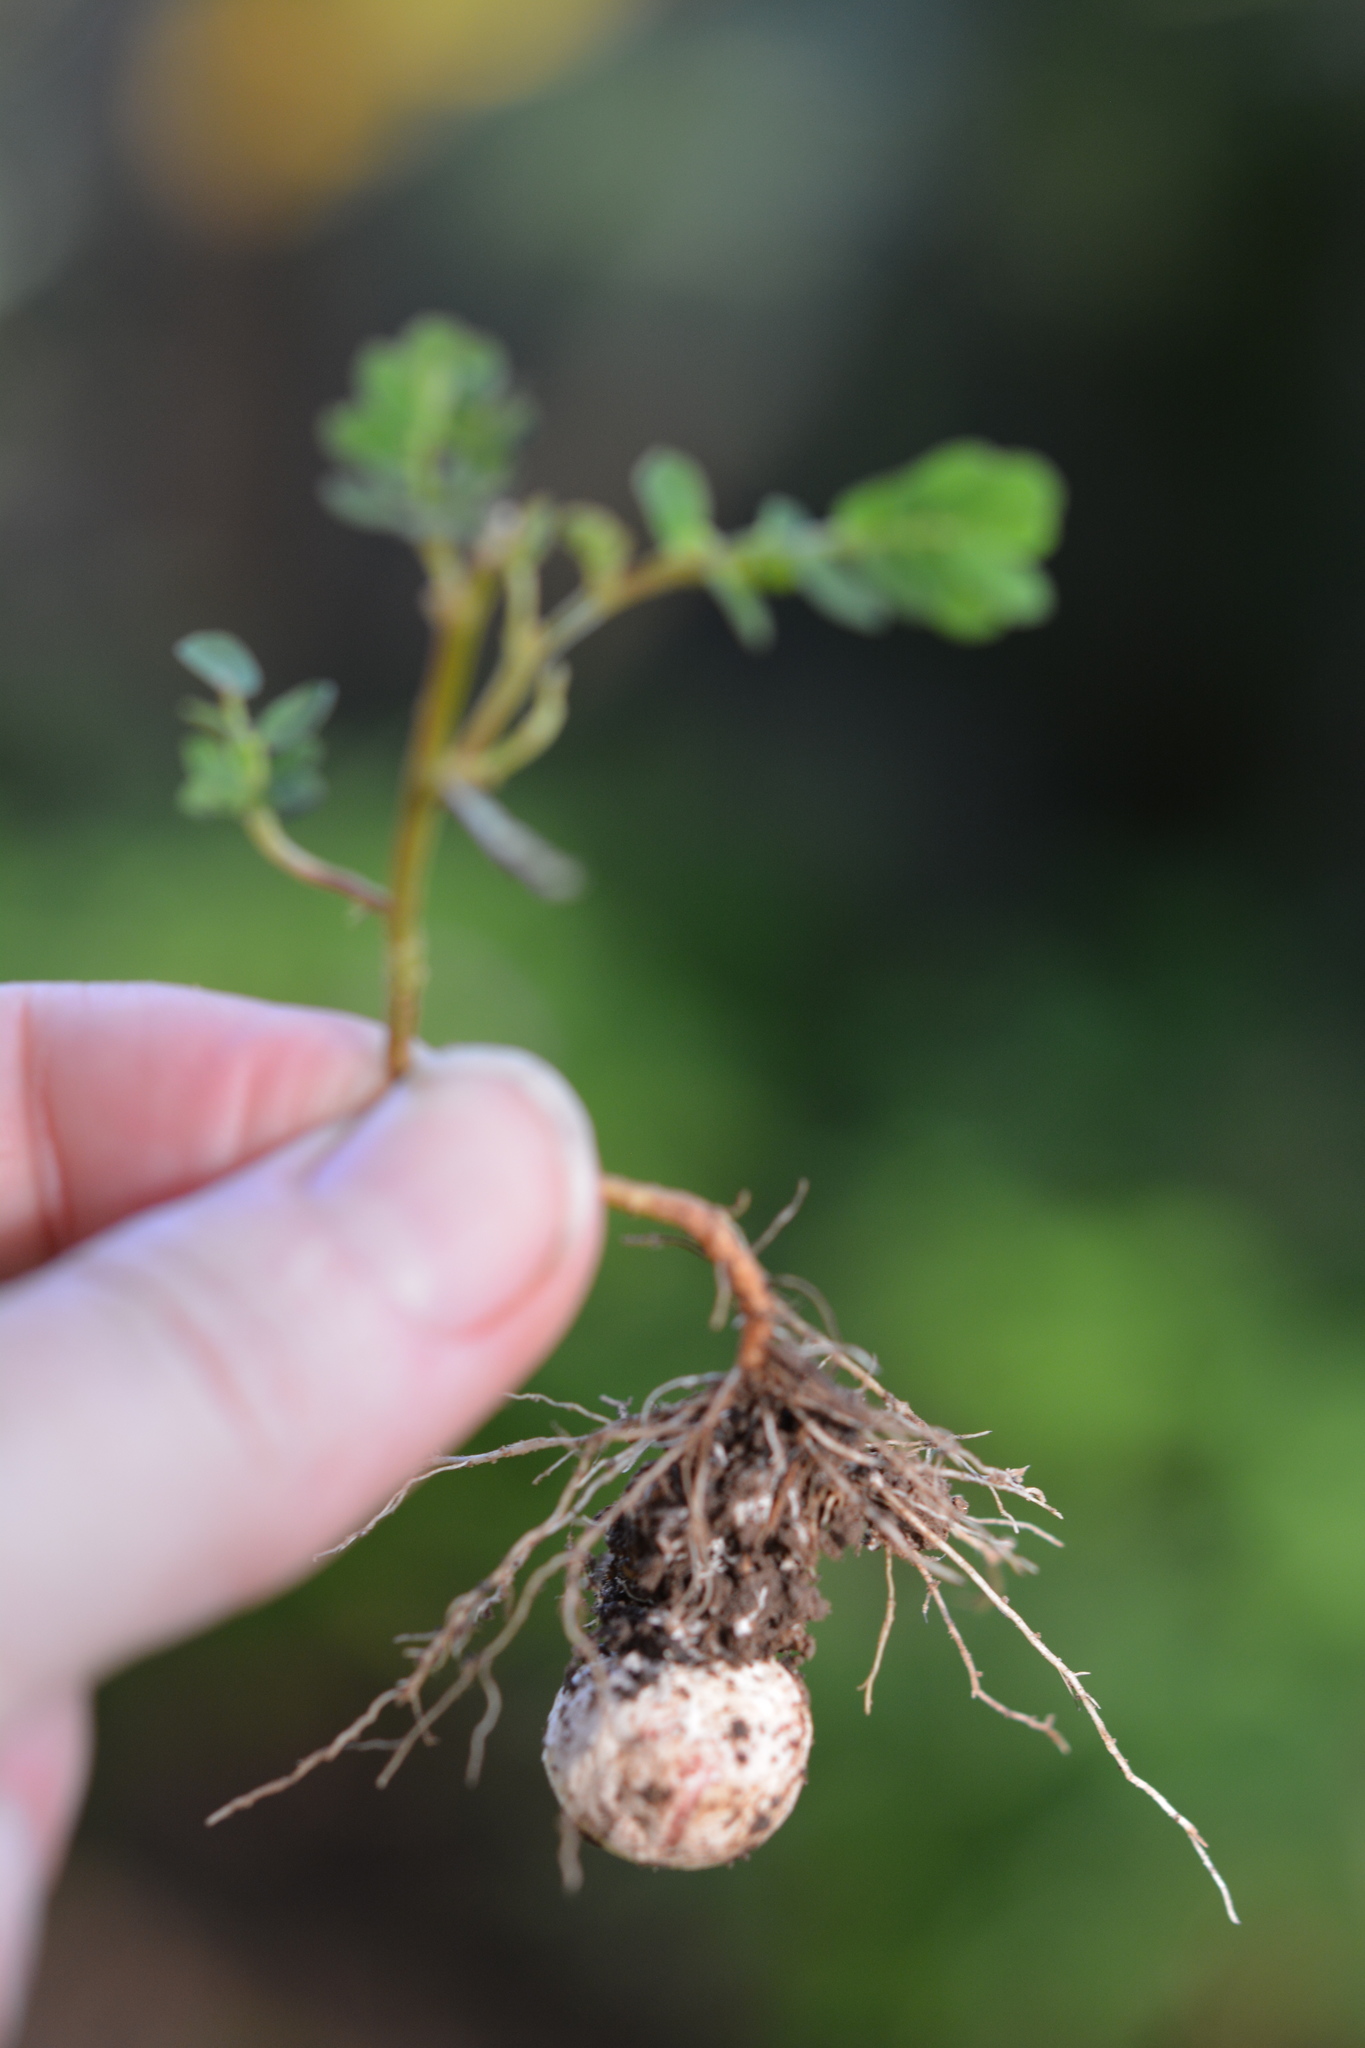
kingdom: Plantae
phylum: Tracheophyta
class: Magnoliopsida
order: Malpighiales
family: Phyllanthaceae
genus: Phyllanthus
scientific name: Phyllanthus urinaria
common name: Chamber bitter
